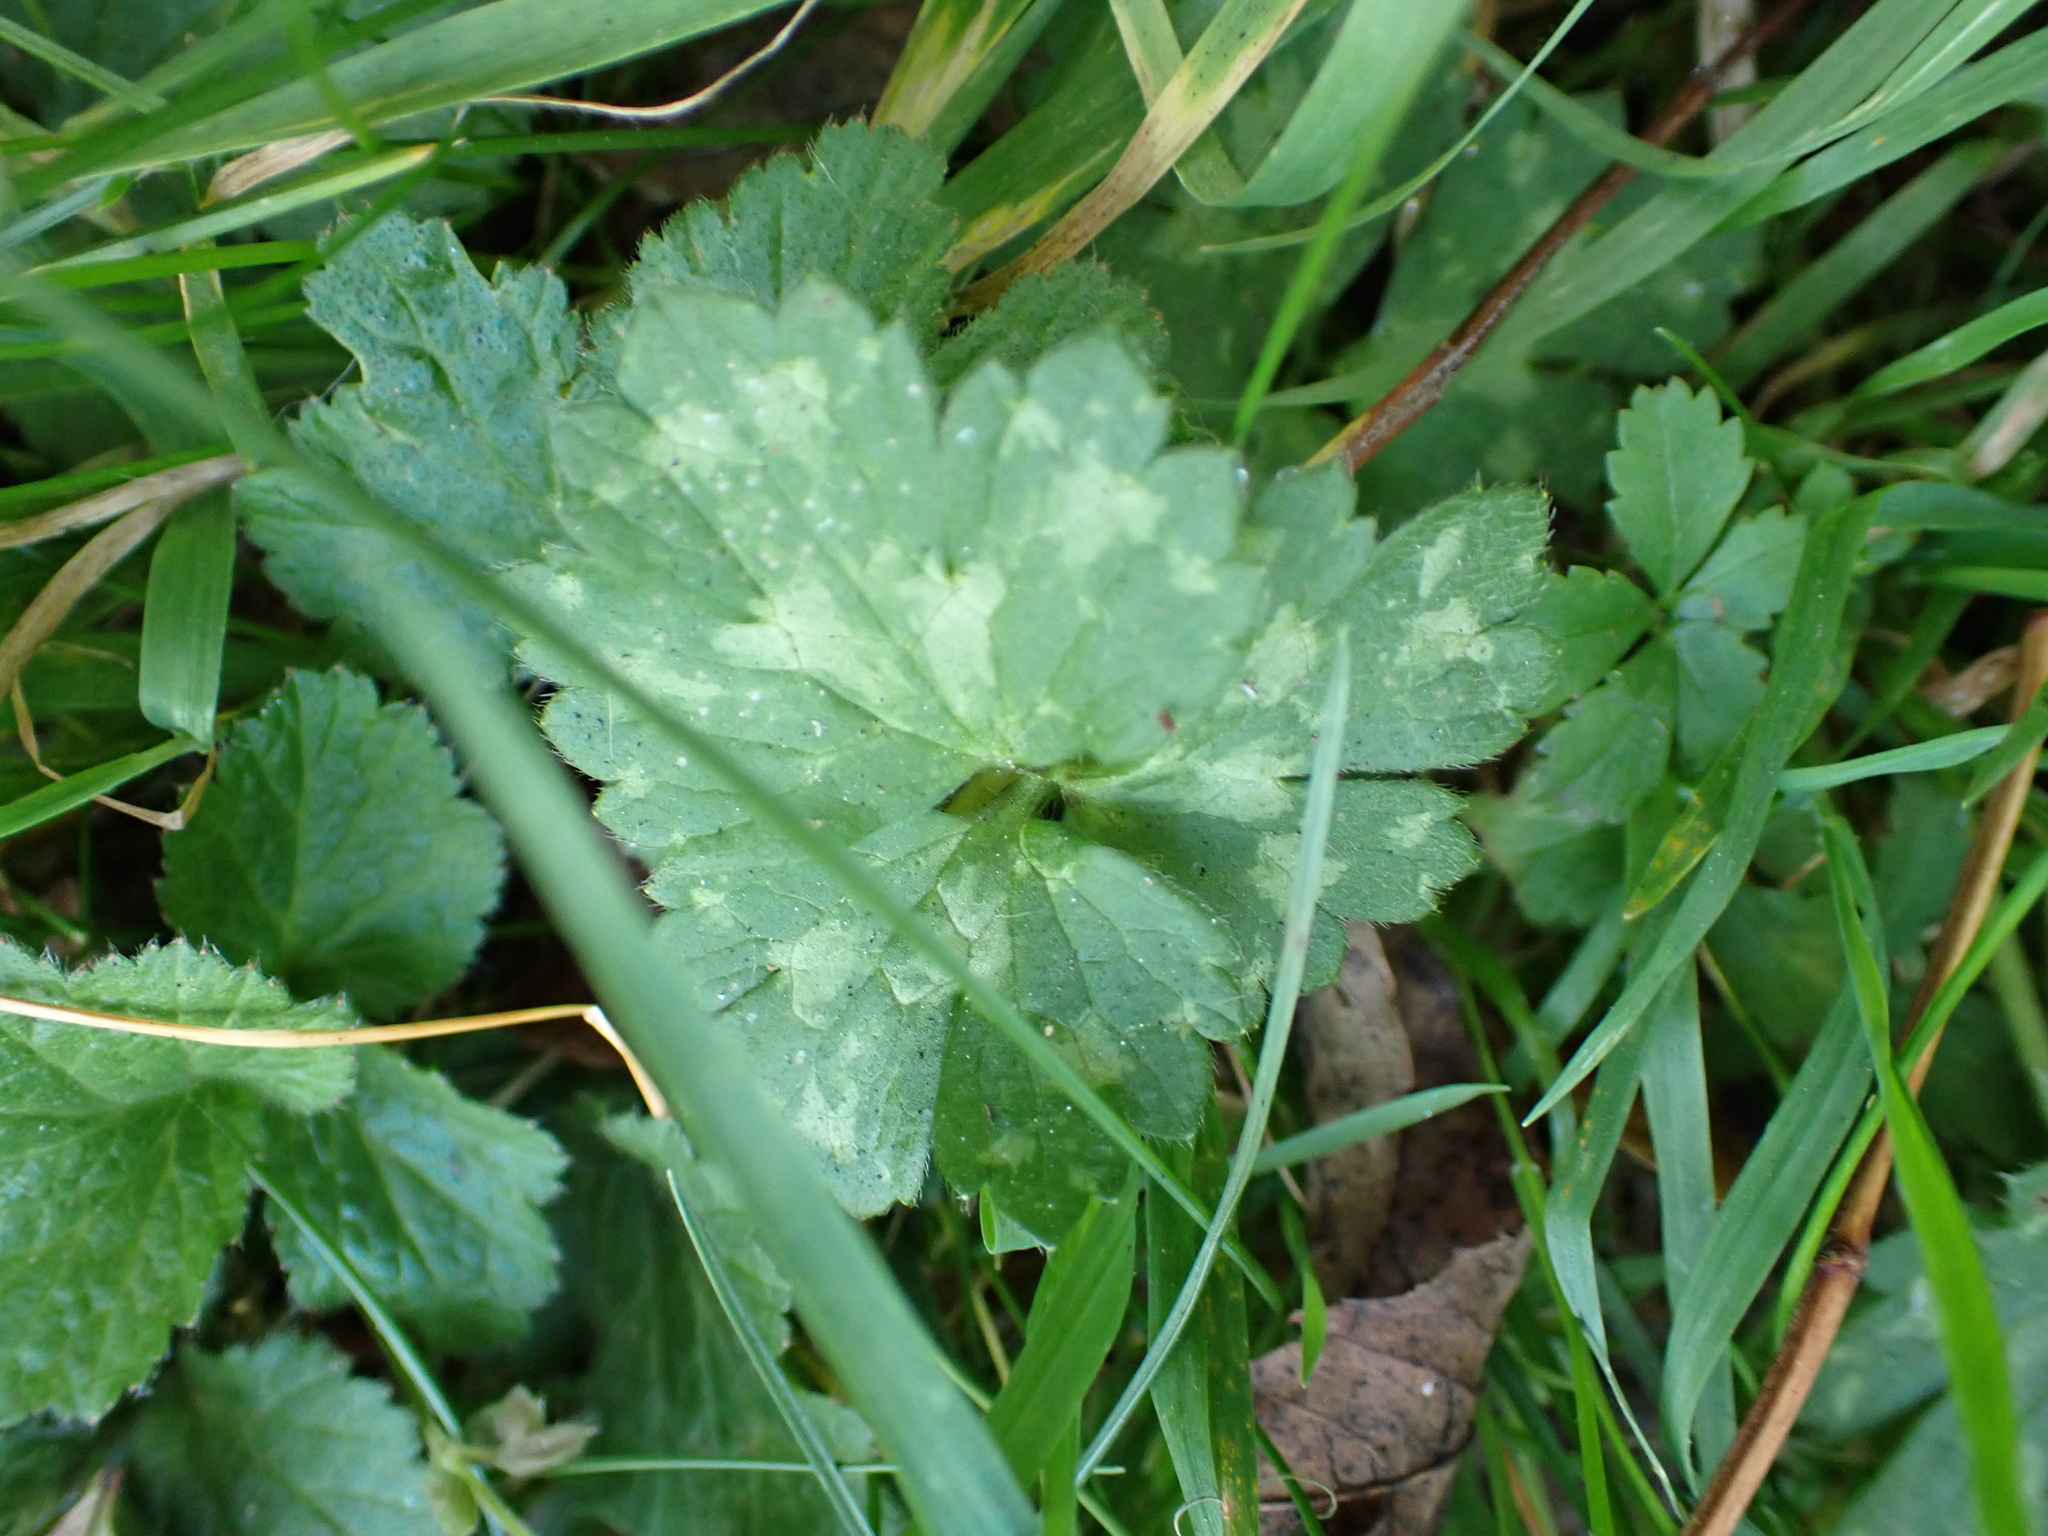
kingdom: Plantae
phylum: Tracheophyta
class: Magnoliopsida
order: Ranunculales
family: Ranunculaceae
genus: Ranunculus
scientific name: Ranunculus repens
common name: Creeping buttercup
